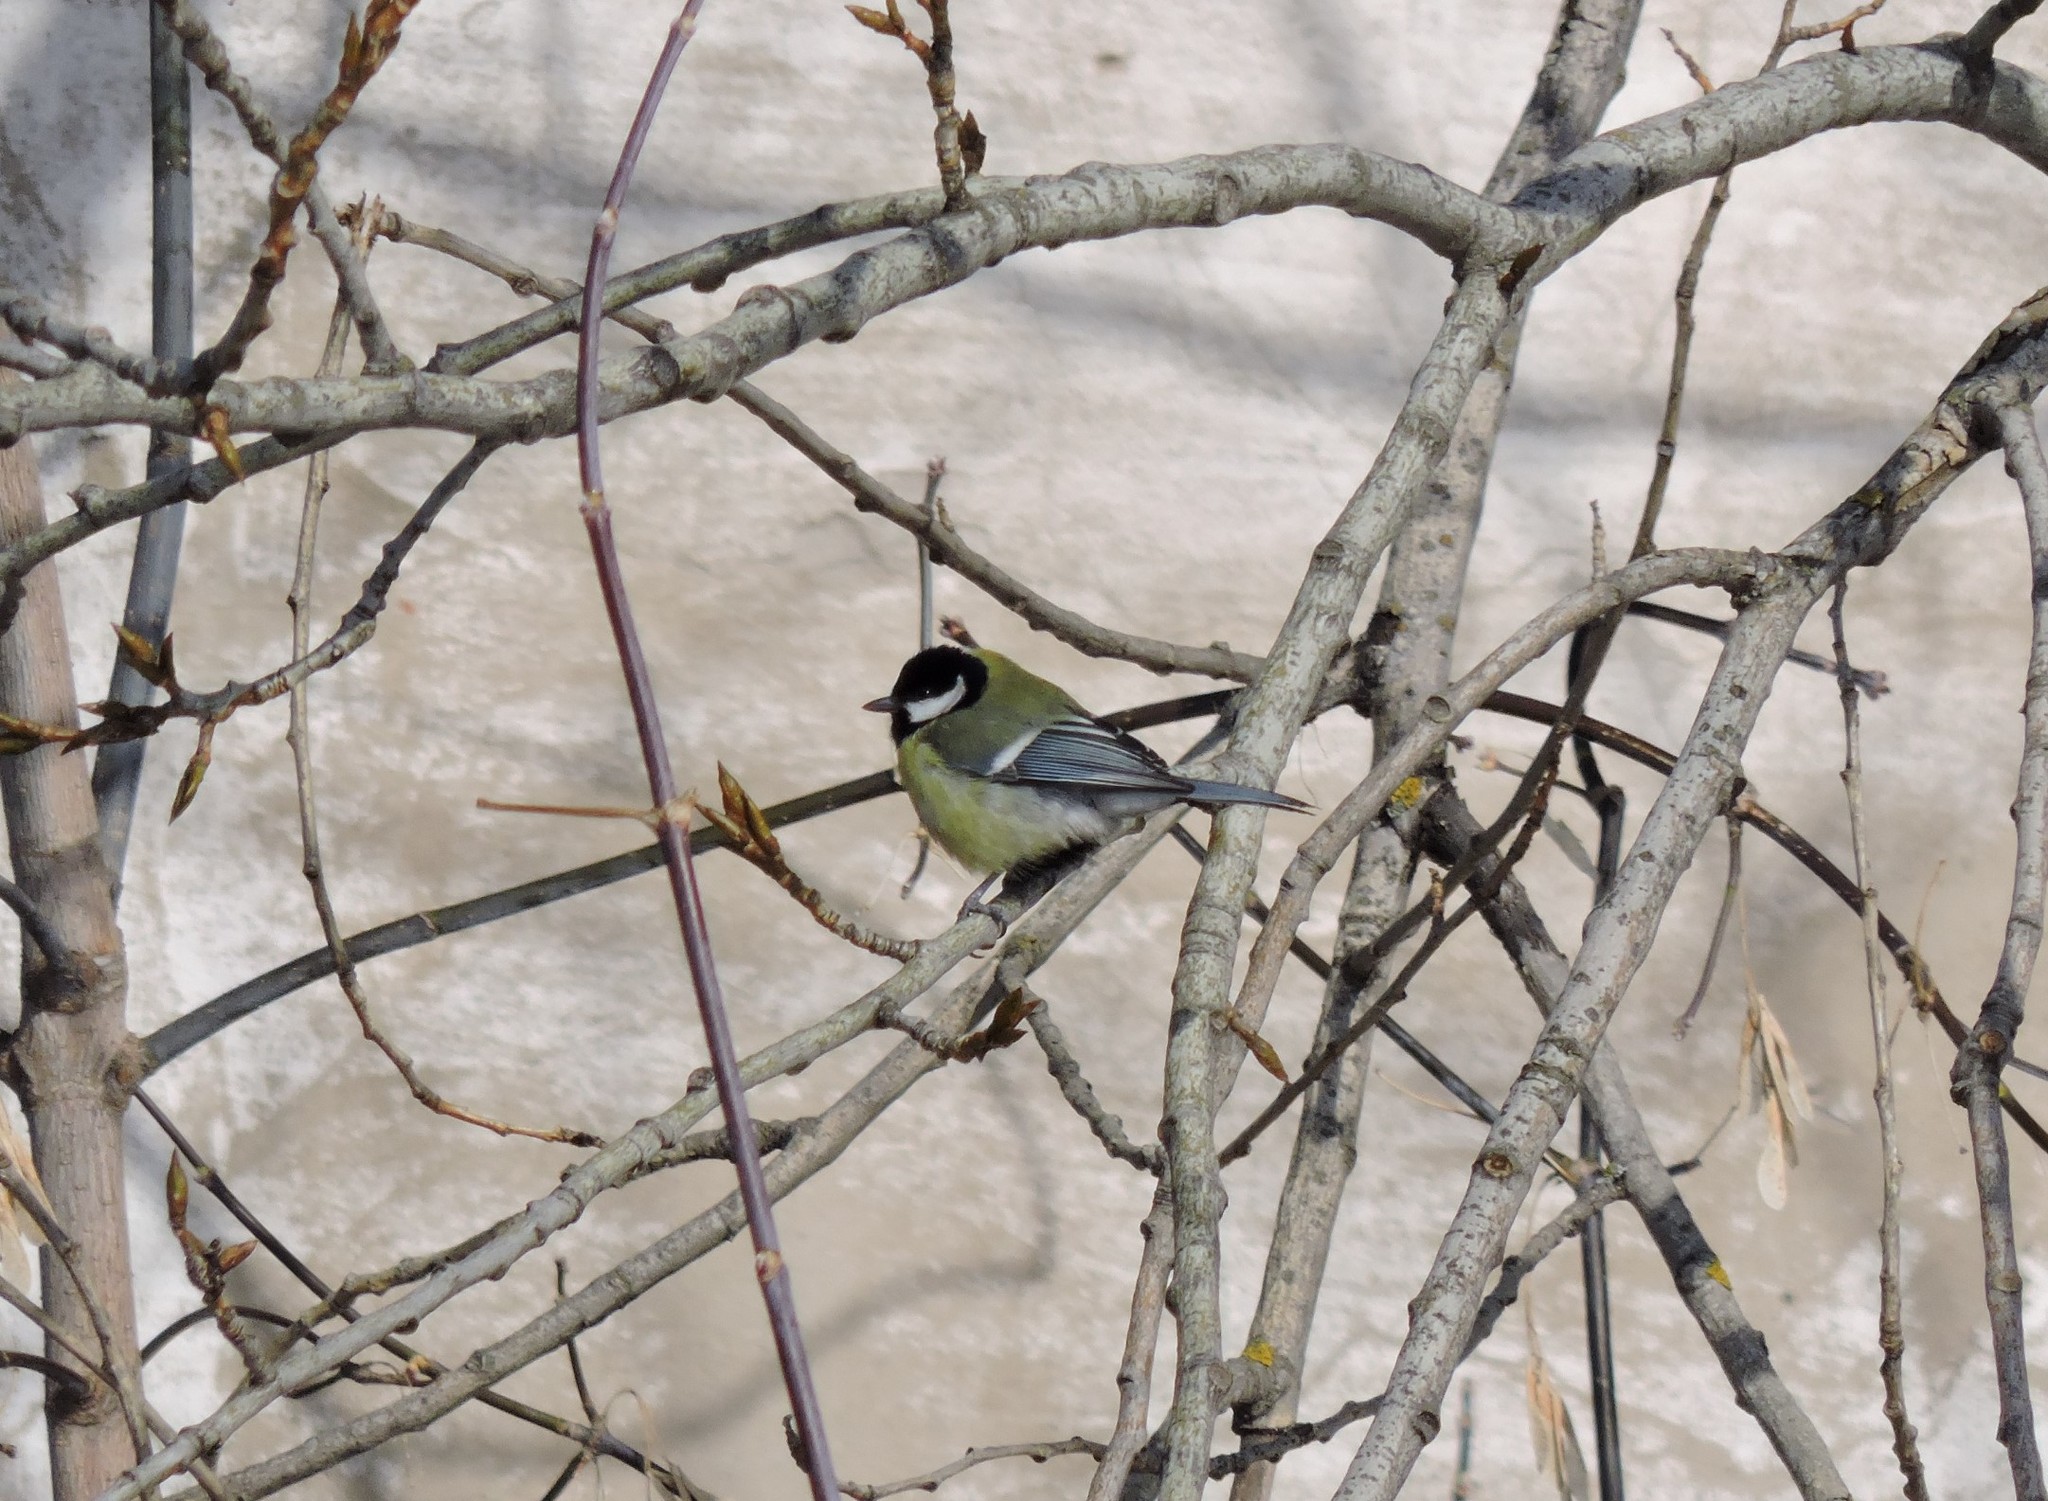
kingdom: Animalia
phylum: Chordata
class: Aves
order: Passeriformes
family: Paridae
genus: Parus
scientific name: Parus major
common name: Great tit
